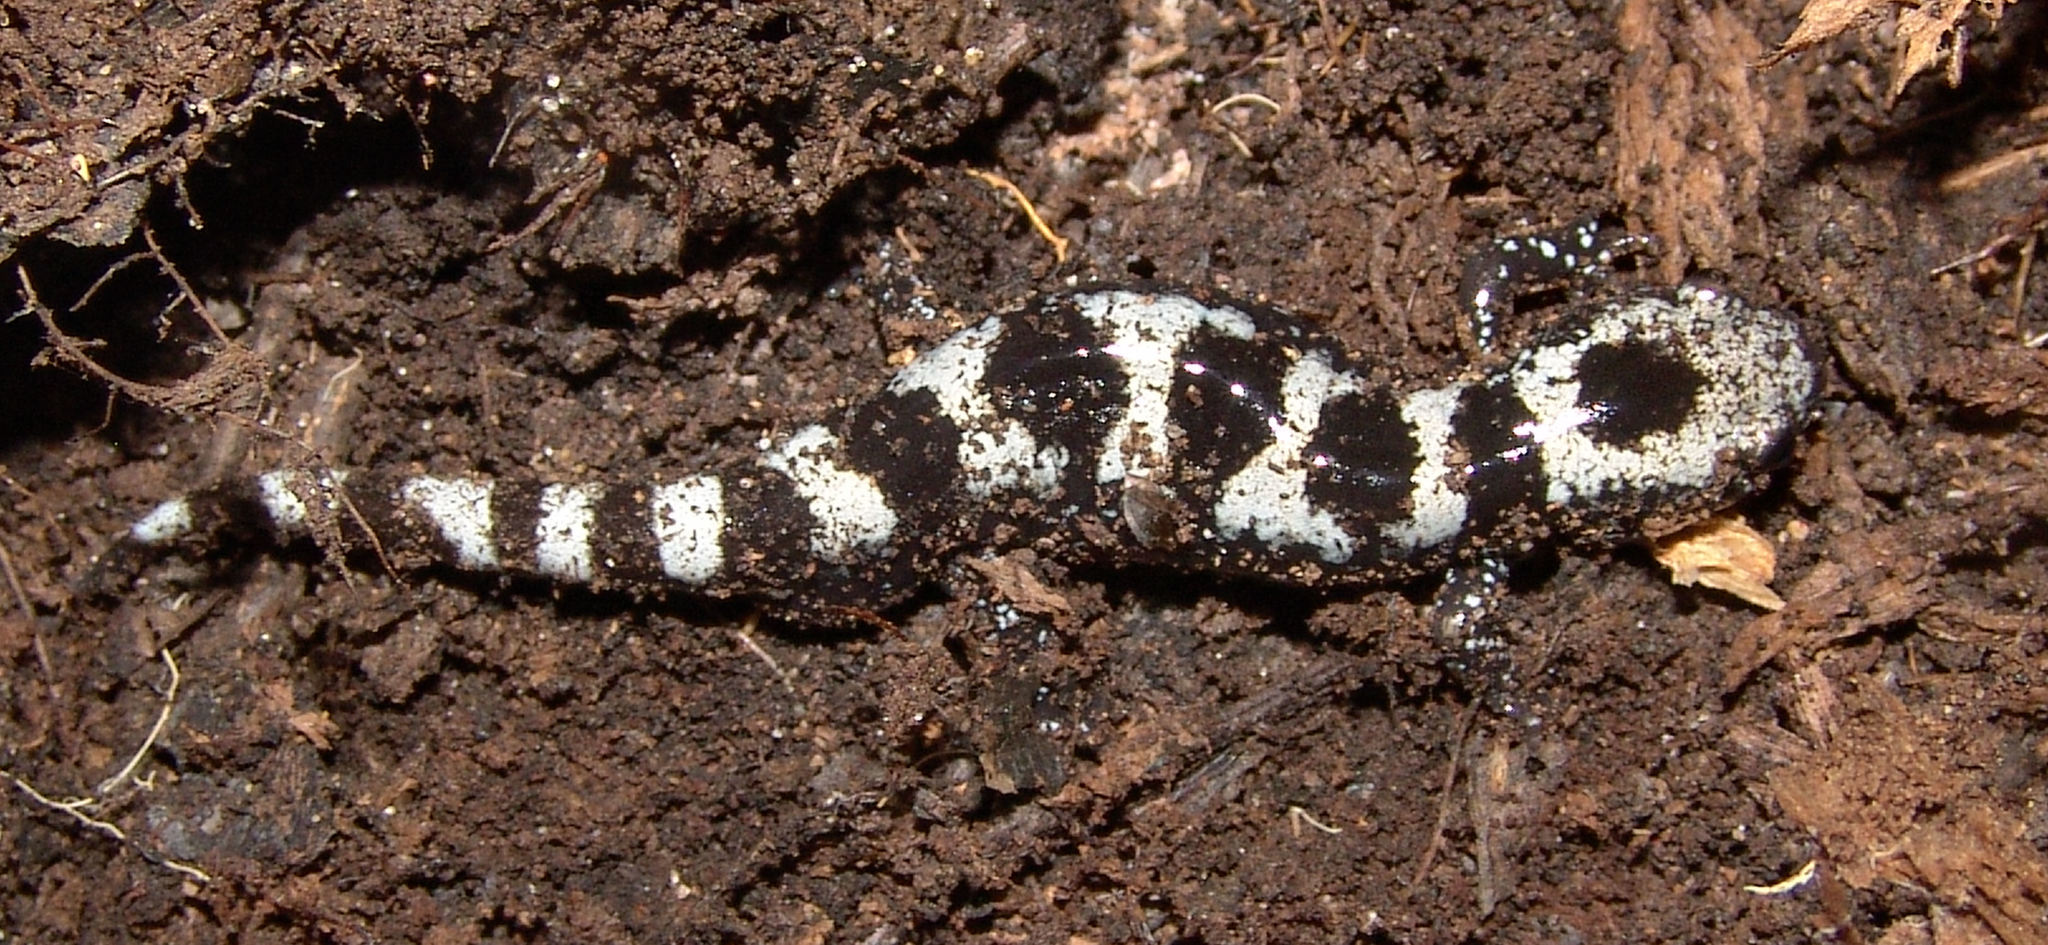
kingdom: Animalia
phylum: Chordata
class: Amphibia
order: Caudata
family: Ambystomatidae
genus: Ambystoma
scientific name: Ambystoma opacum
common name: Marbled salamander
